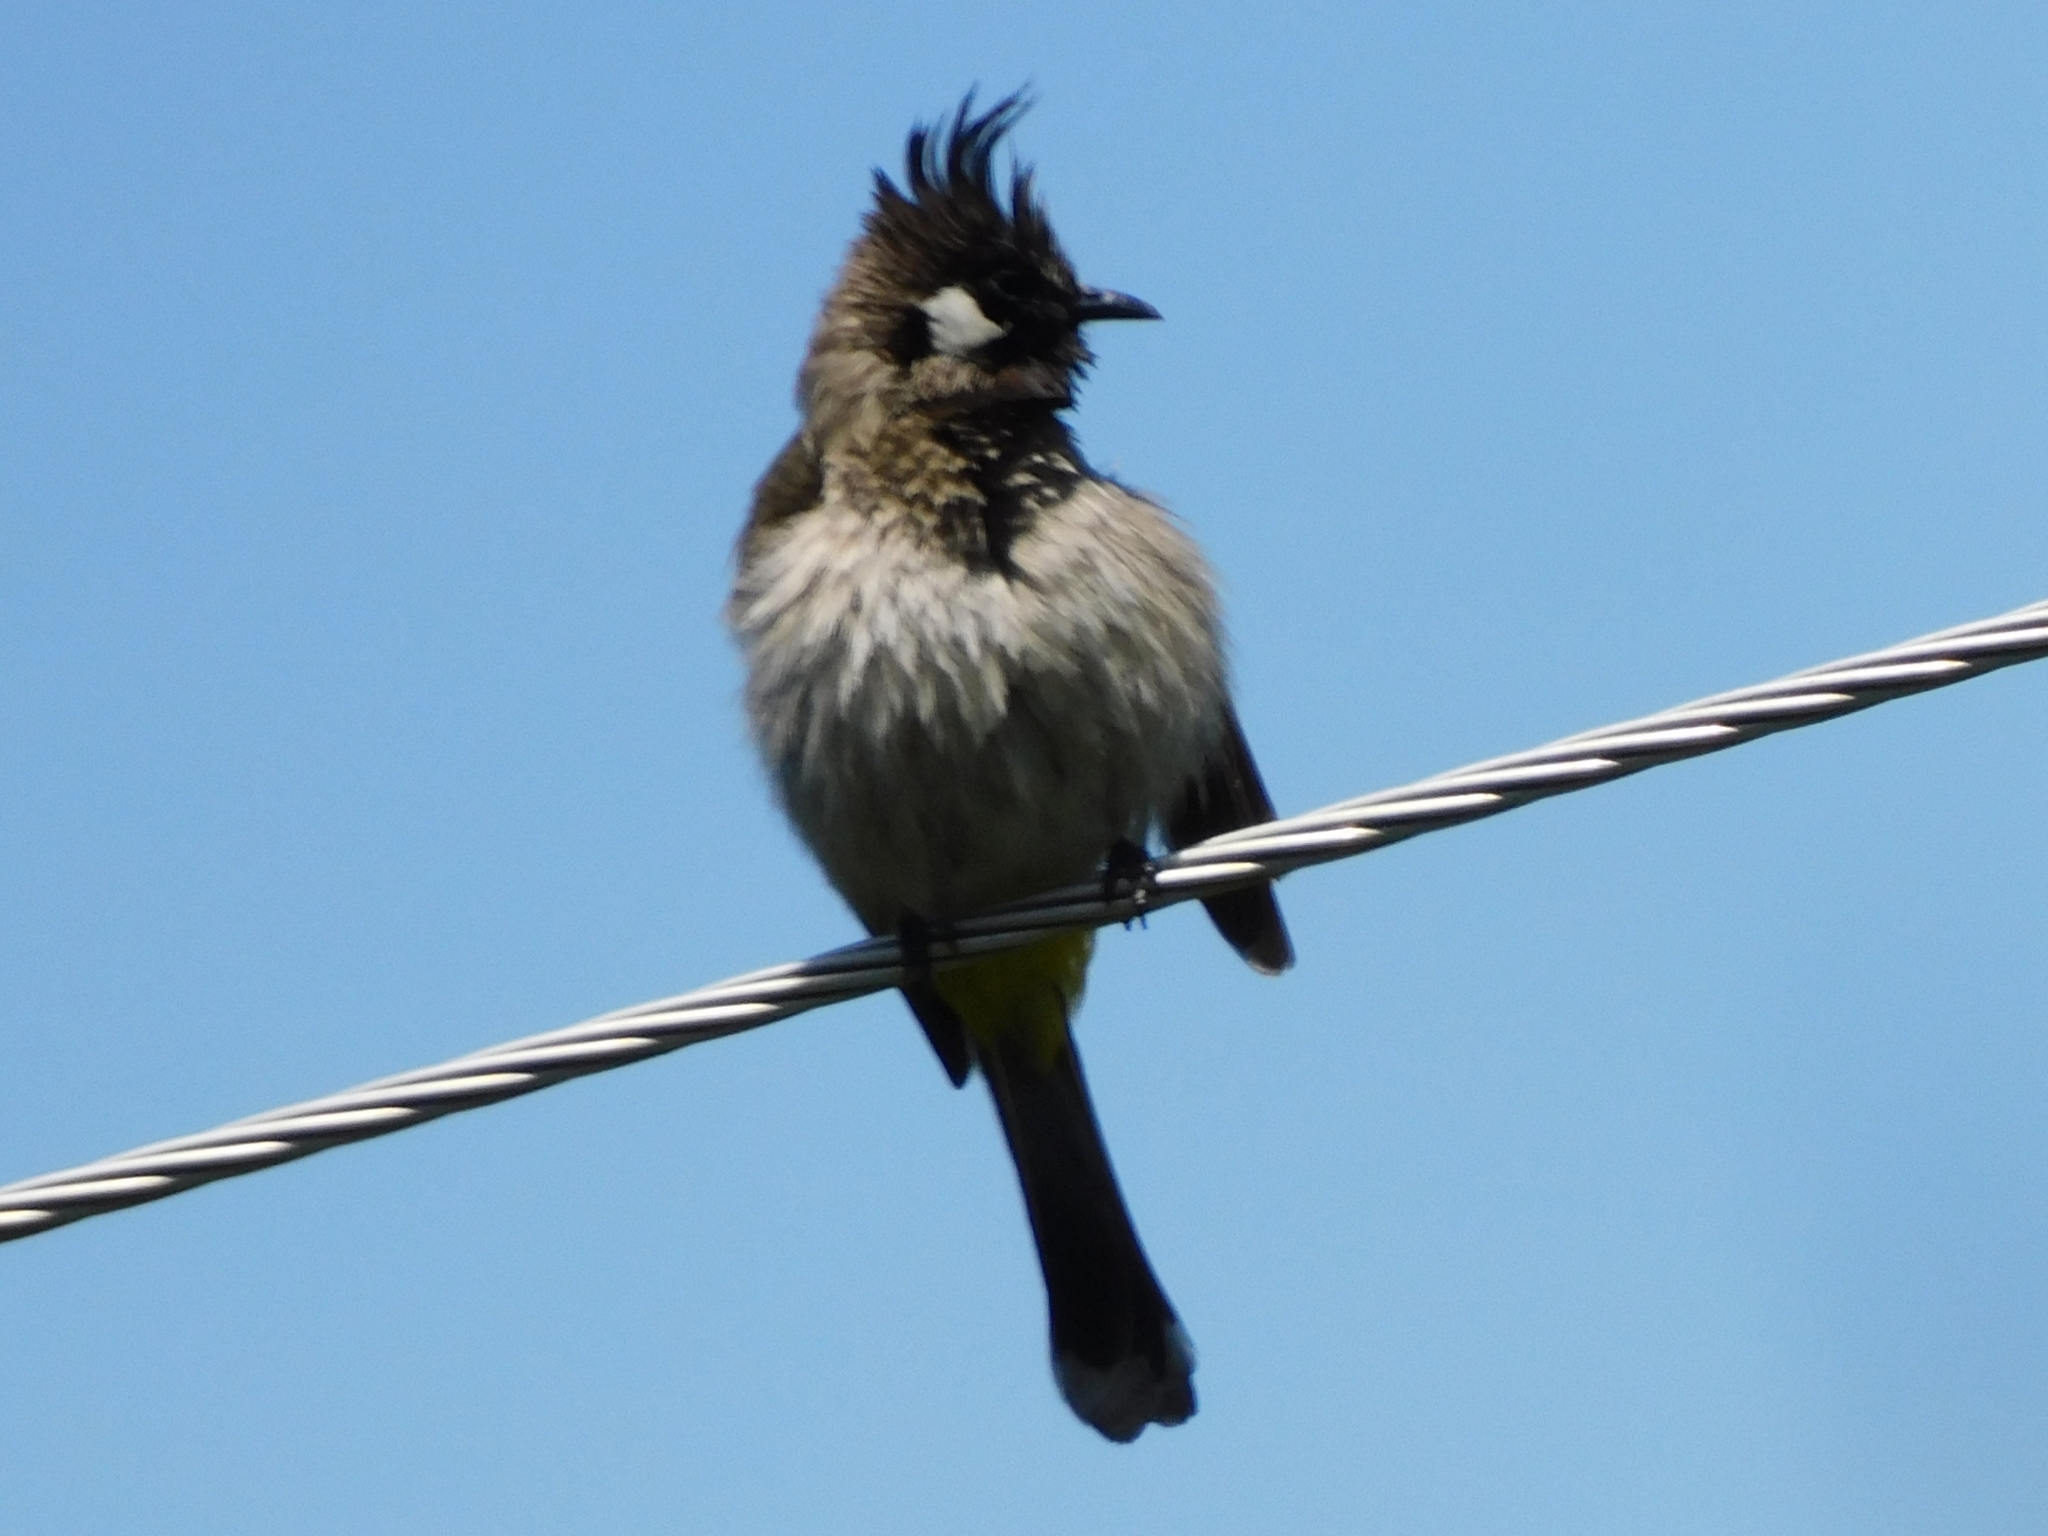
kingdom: Animalia
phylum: Chordata
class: Aves
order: Passeriformes
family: Pycnonotidae
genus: Pycnonotus
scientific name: Pycnonotus leucogenys
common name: Himalayan bulbul
